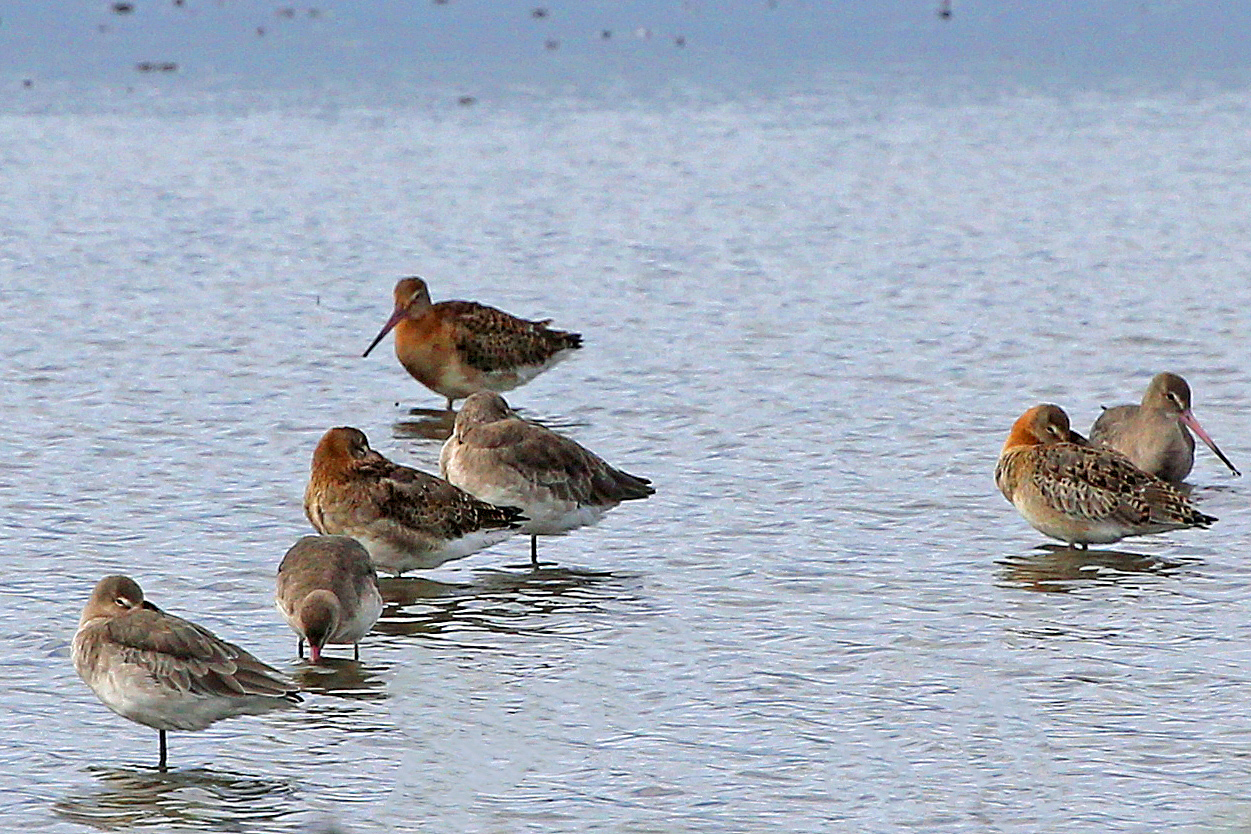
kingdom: Animalia
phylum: Chordata
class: Aves
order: Charadriiformes
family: Scolopacidae
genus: Limosa
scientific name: Limosa limosa
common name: Black-tailed godwit
